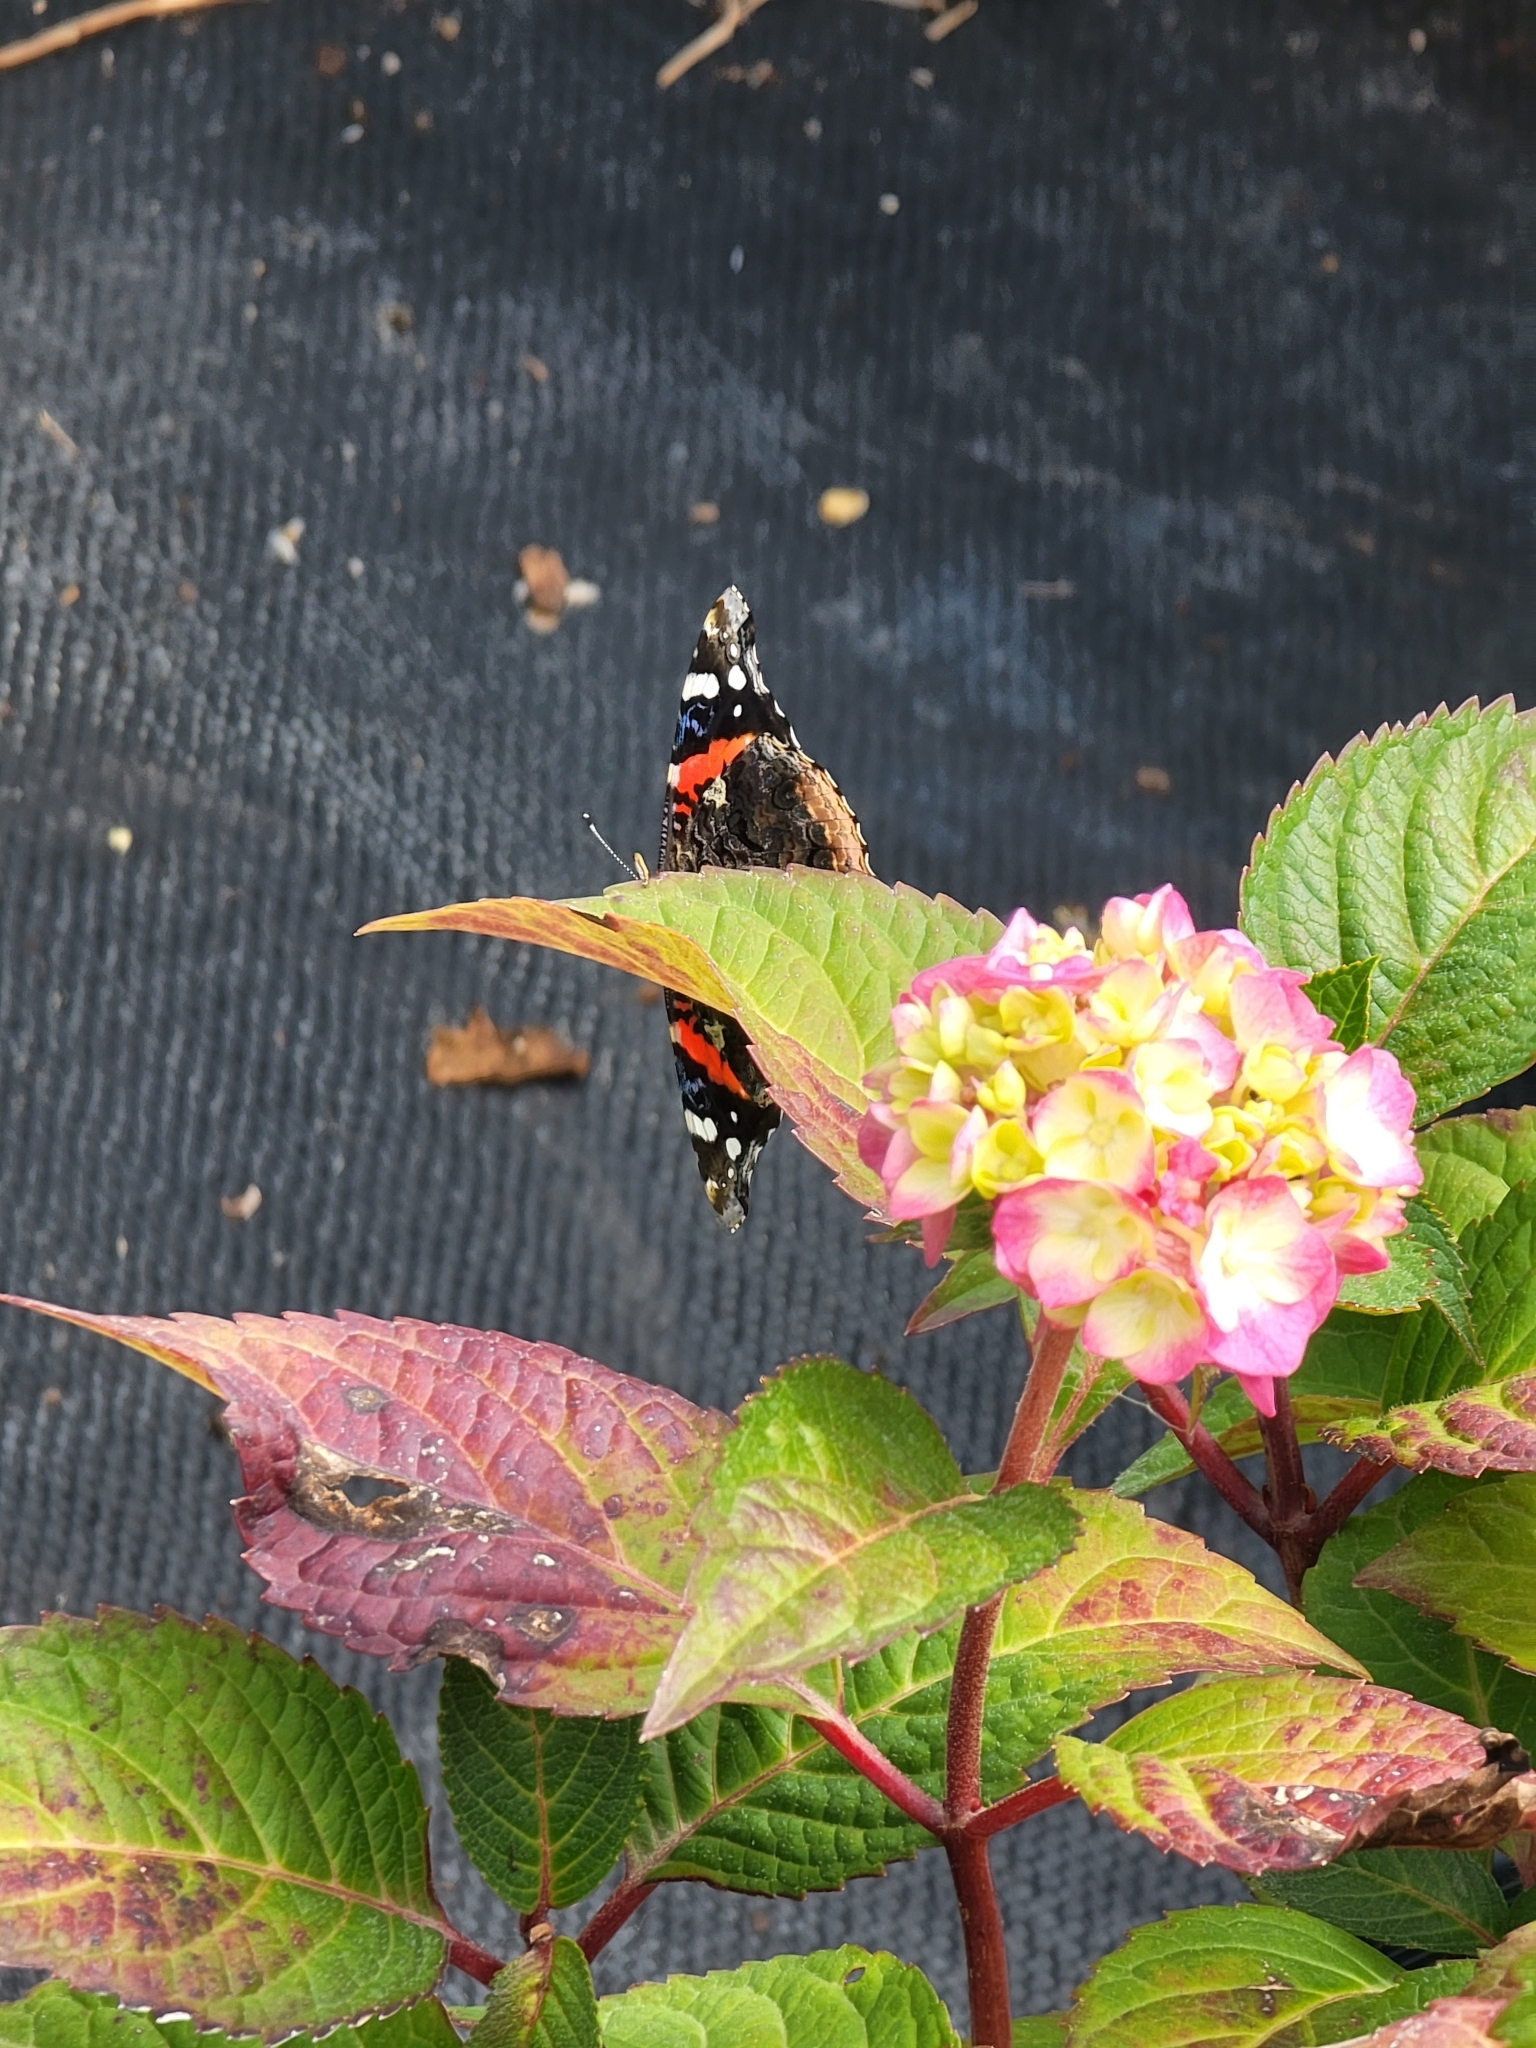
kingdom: Animalia
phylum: Arthropoda
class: Insecta
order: Lepidoptera
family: Nymphalidae
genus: Vanessa
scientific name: Vanessa atalanta
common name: Red admiral
